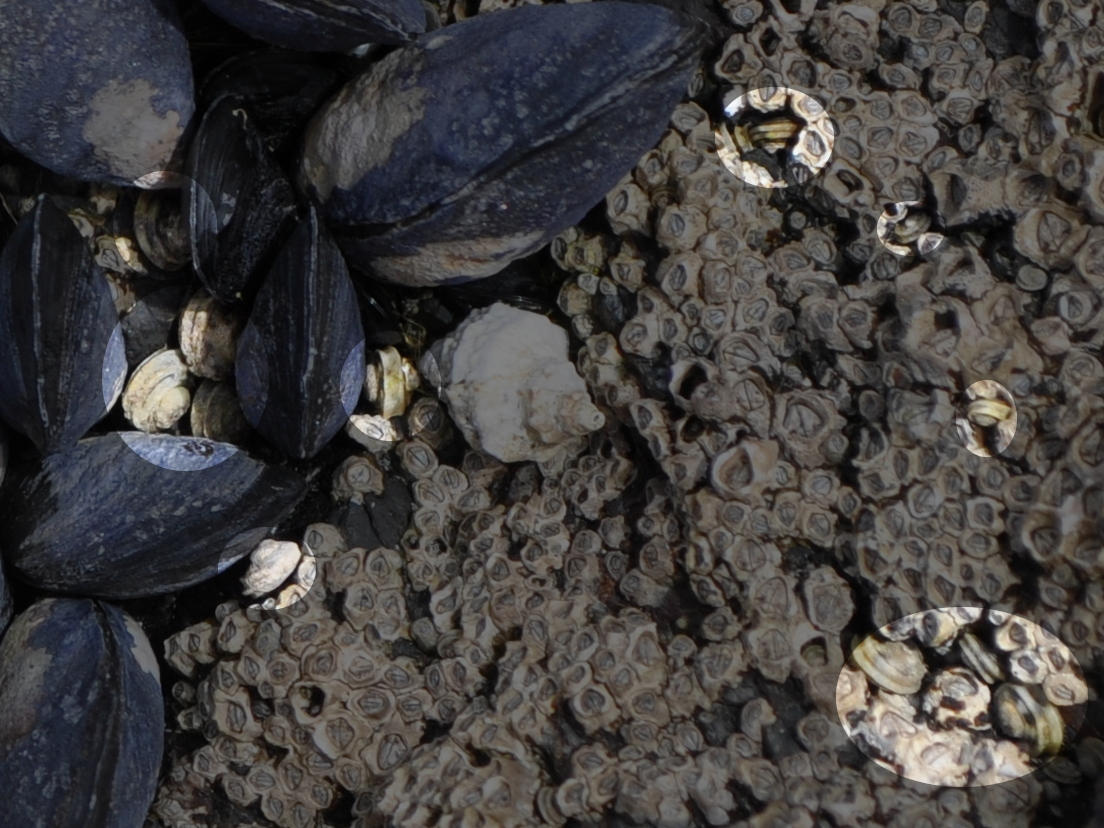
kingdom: Animalia
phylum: Mollusca
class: Gastropoda
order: Littorinimorpha
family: Littorinidae
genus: Risellopsis
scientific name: Risellopsis varia
